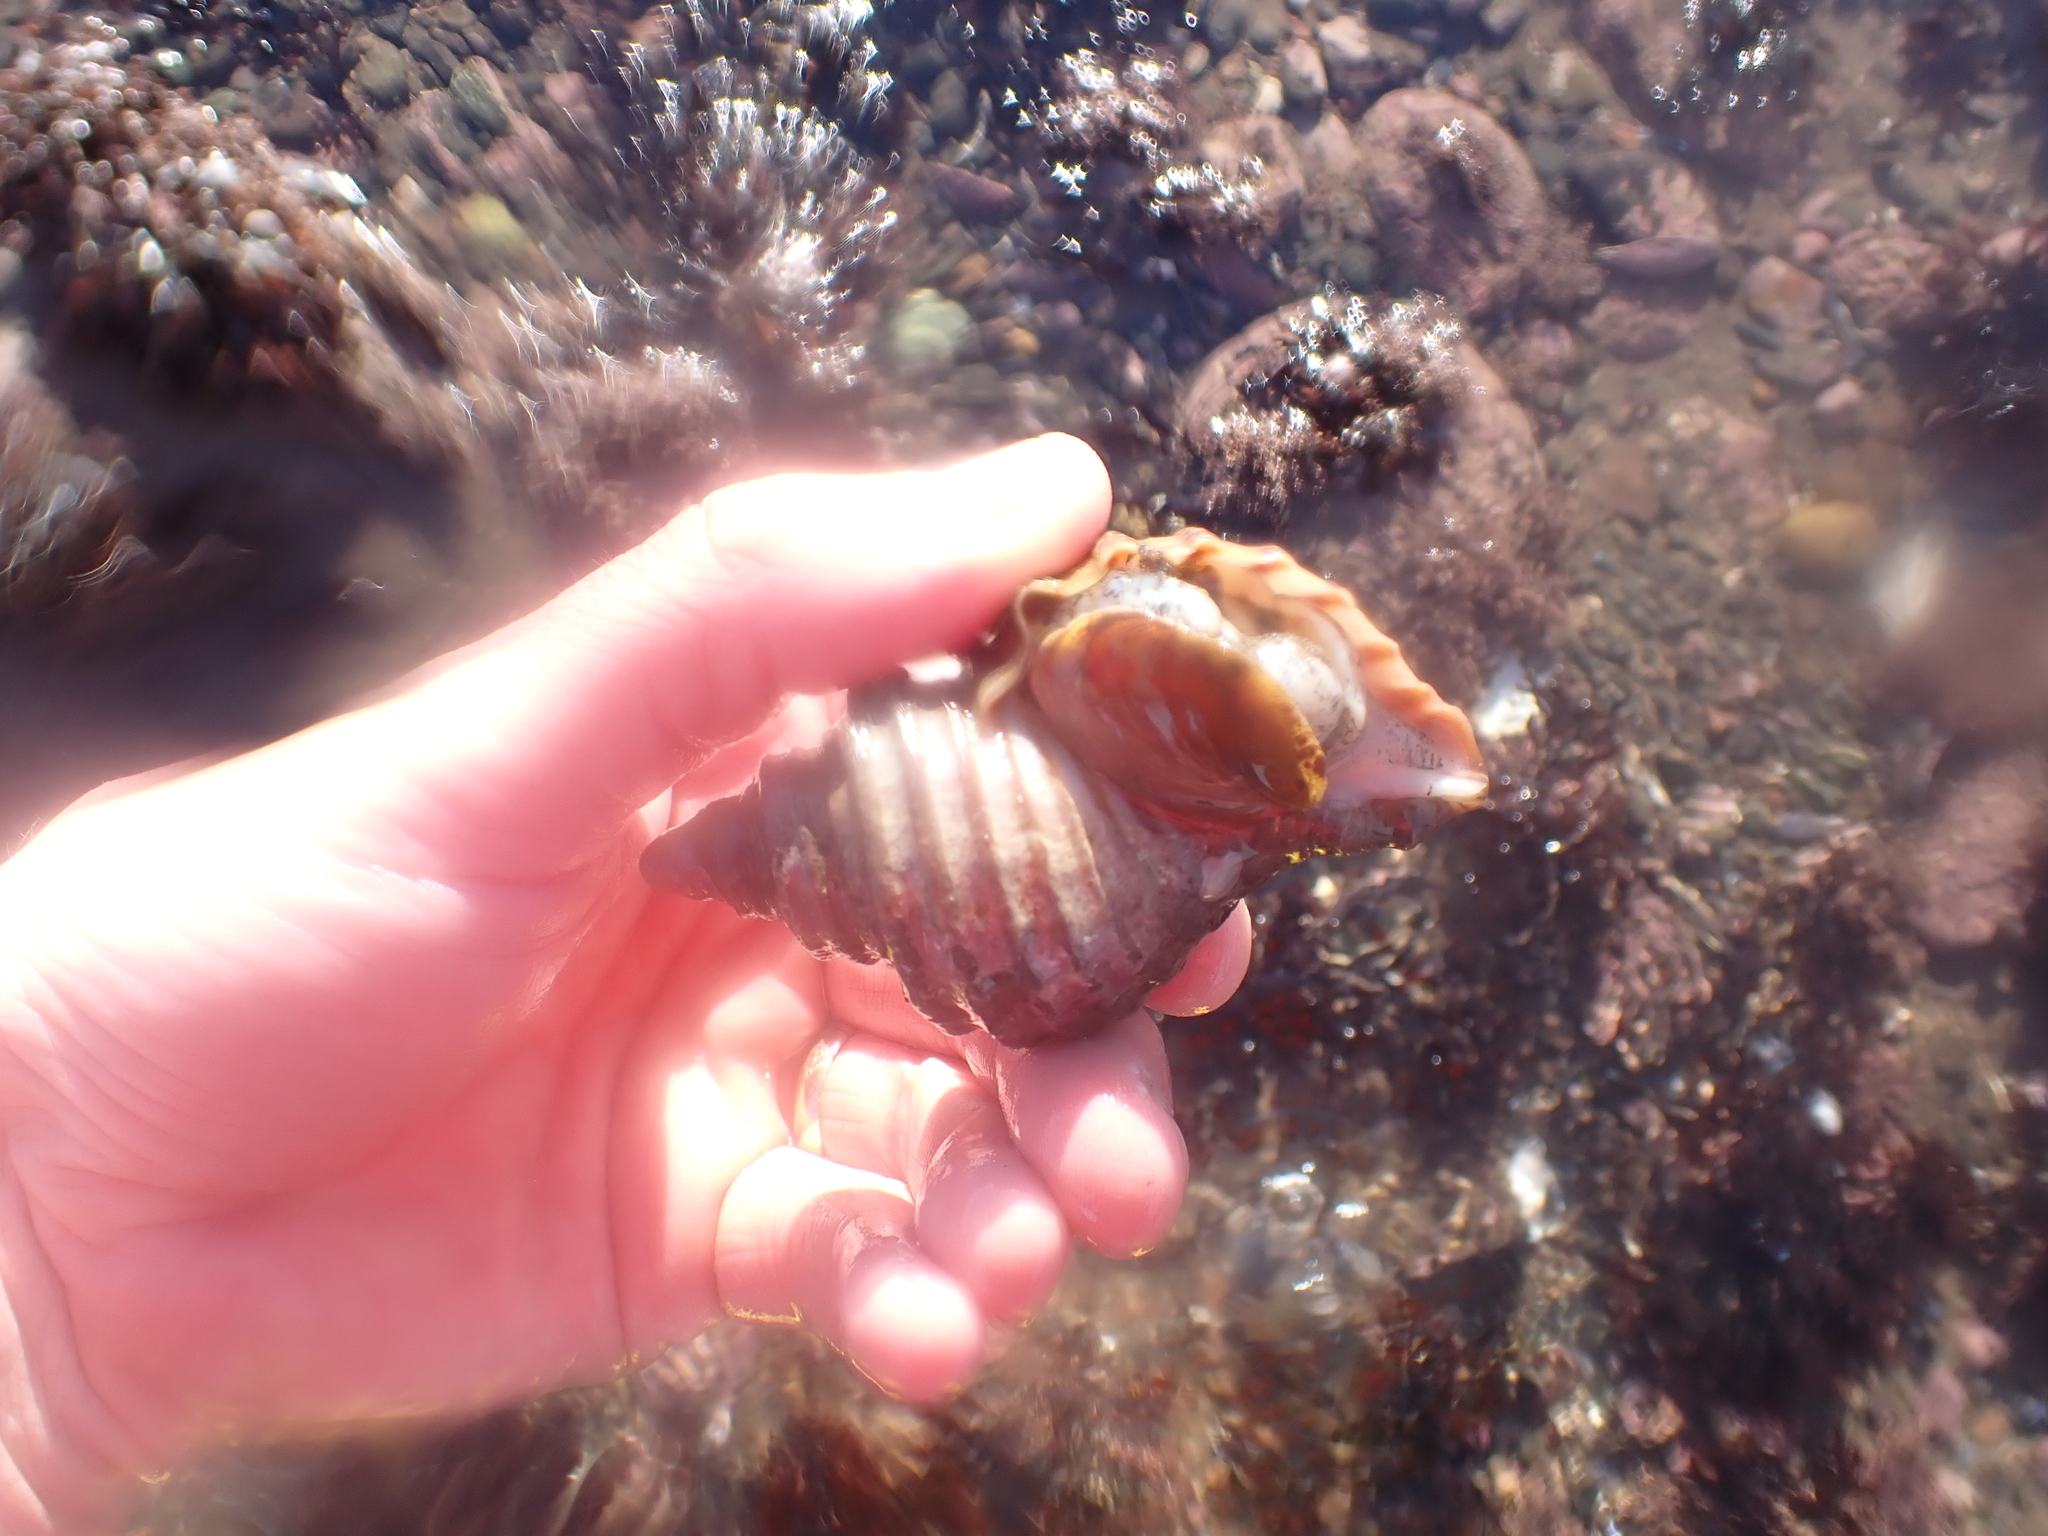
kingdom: Animalia
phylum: Mollusca
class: Gastropoda
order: Neogastropoda
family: Buccinidae
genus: Neptunea
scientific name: Neptunea decemcostata
